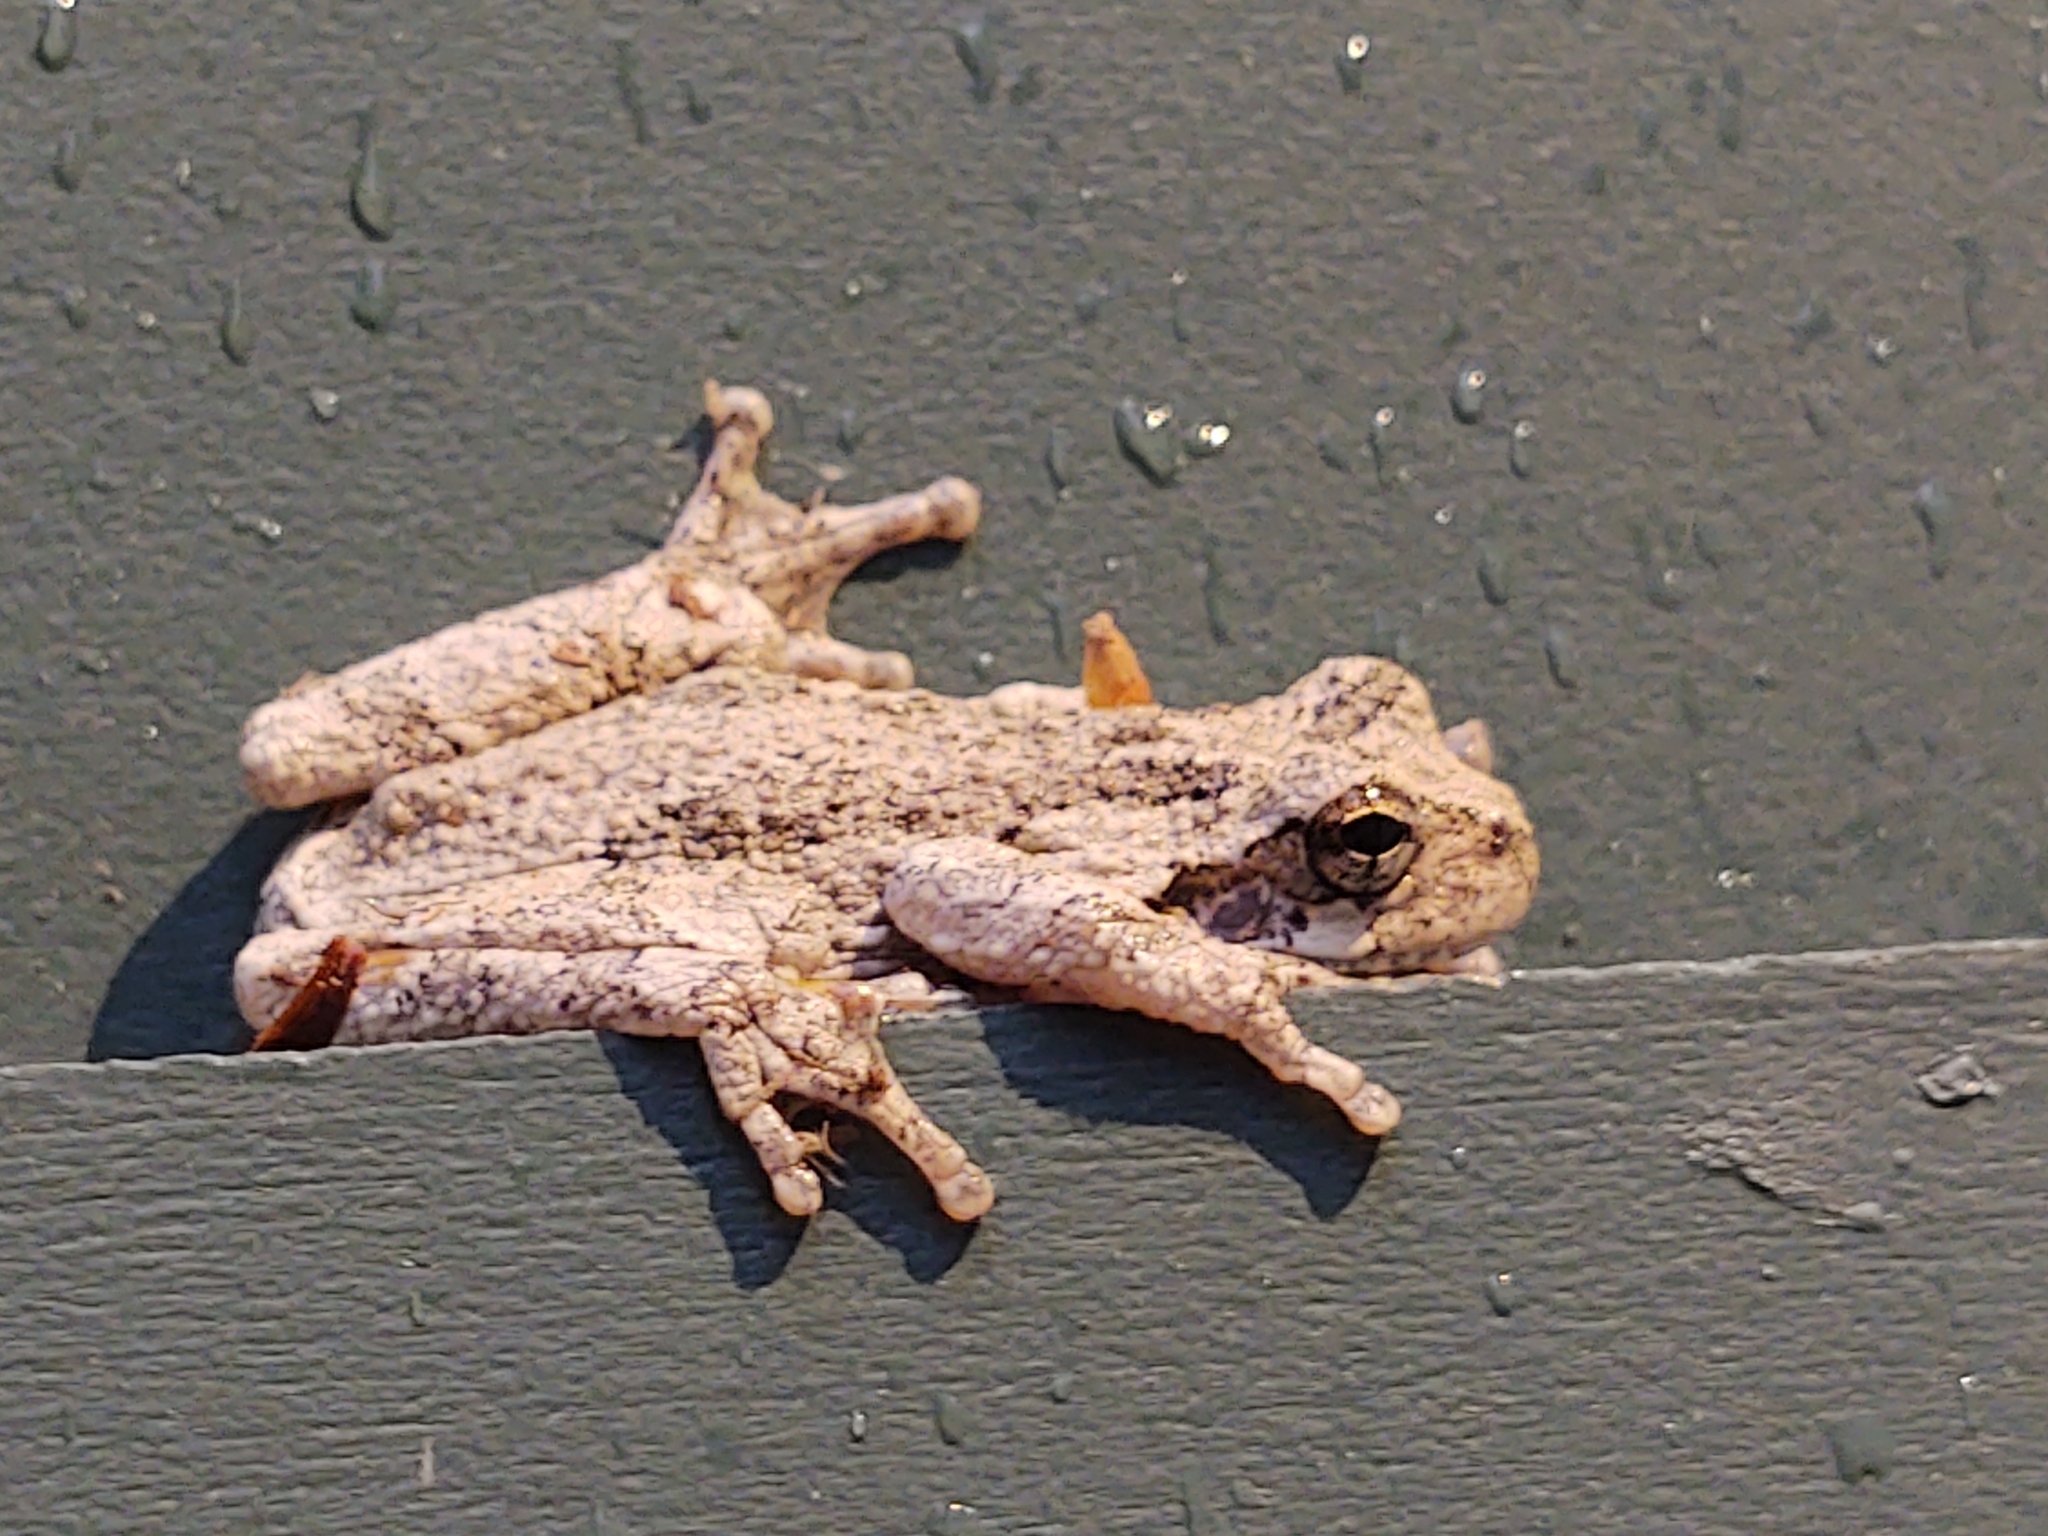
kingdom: Animalia
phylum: Chordata
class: Amphibia
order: Anura
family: Hylidae
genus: Dryophytes
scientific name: Dryophytes versicolor
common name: Gray treefrog
